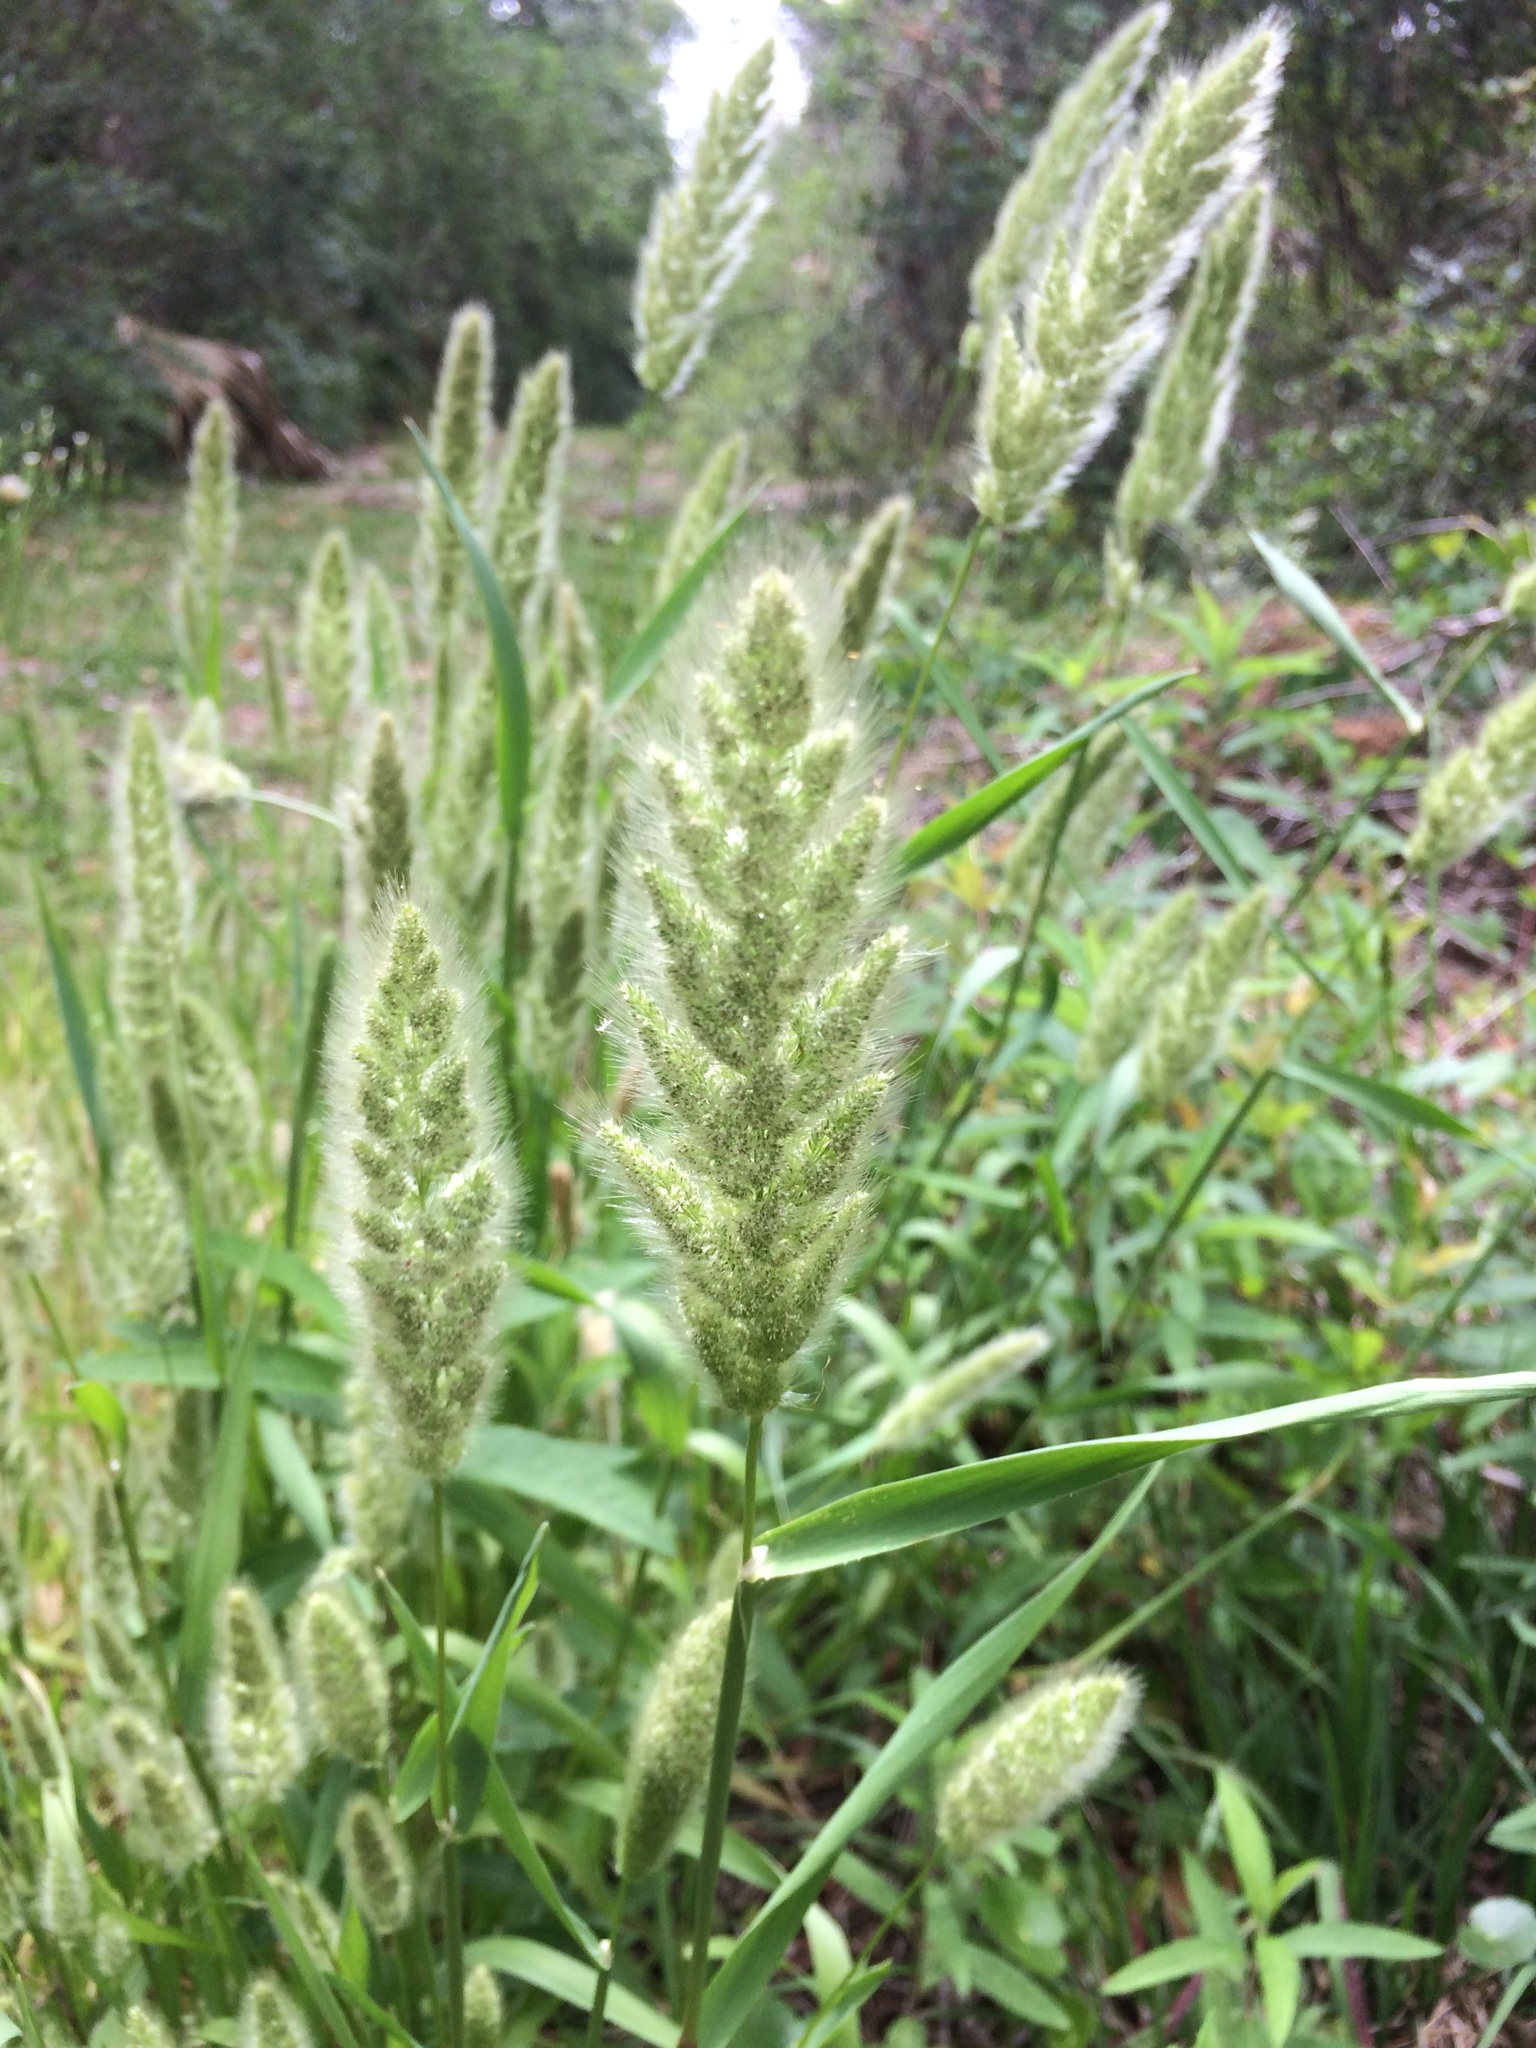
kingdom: Plantae
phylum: Tracheophyta
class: Liliopsida
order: Poales
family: Poaceae
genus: Polypogon
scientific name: Polypogon monspeliensis
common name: Annual rabbitsfoot grass
